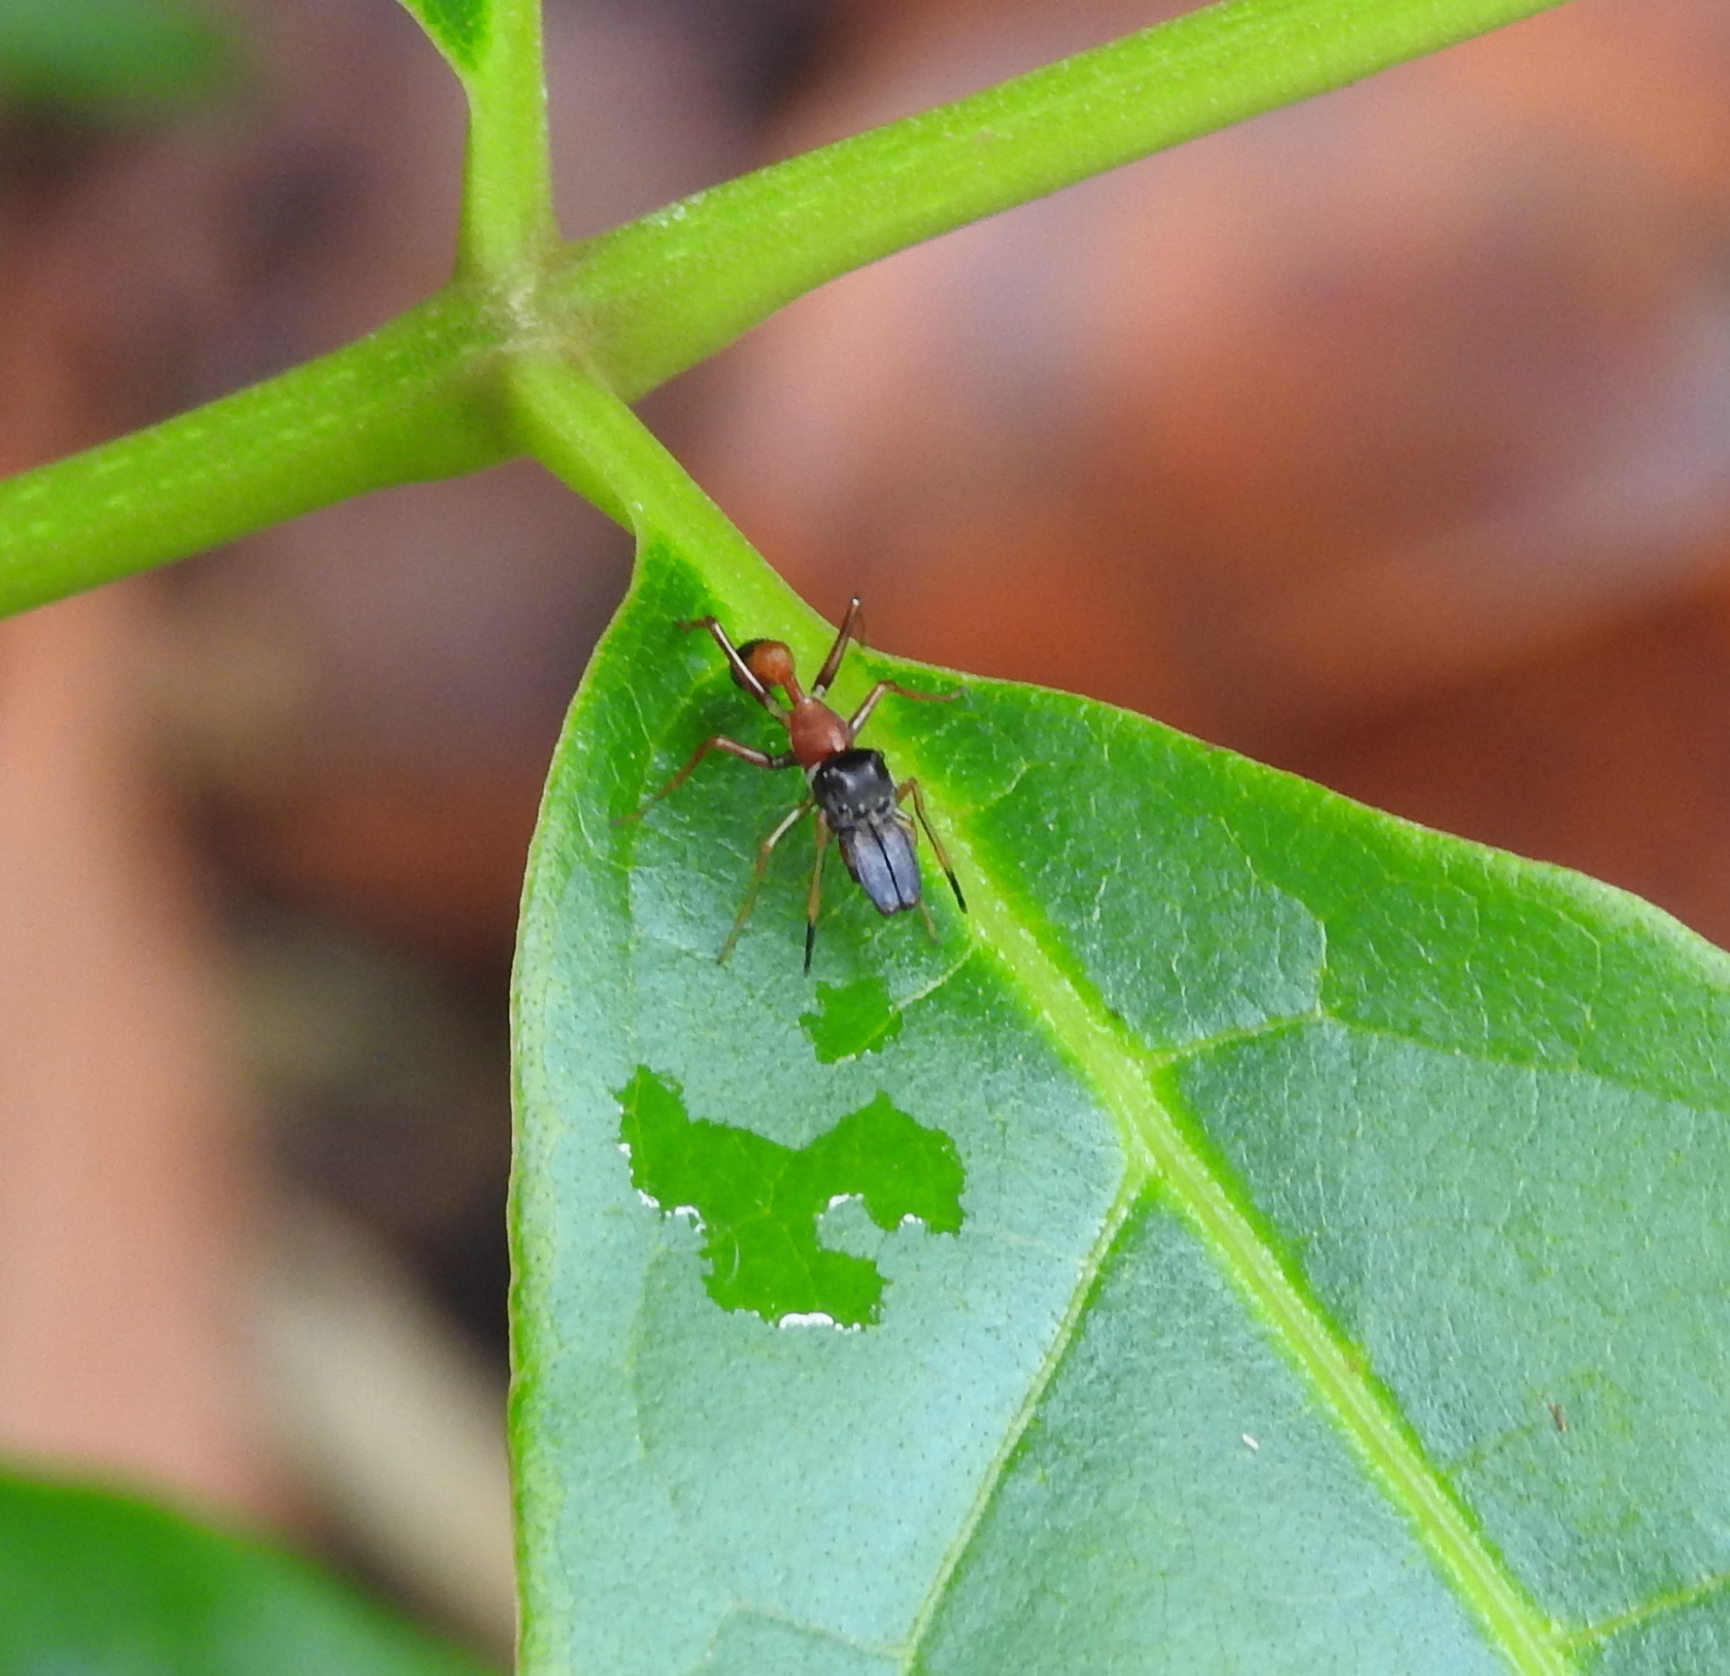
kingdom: Animalia
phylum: Arthropoda
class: Arachnida
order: Araneae
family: Salticidae
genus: Myrmarachne
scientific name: Myrmarachne melanocephala
